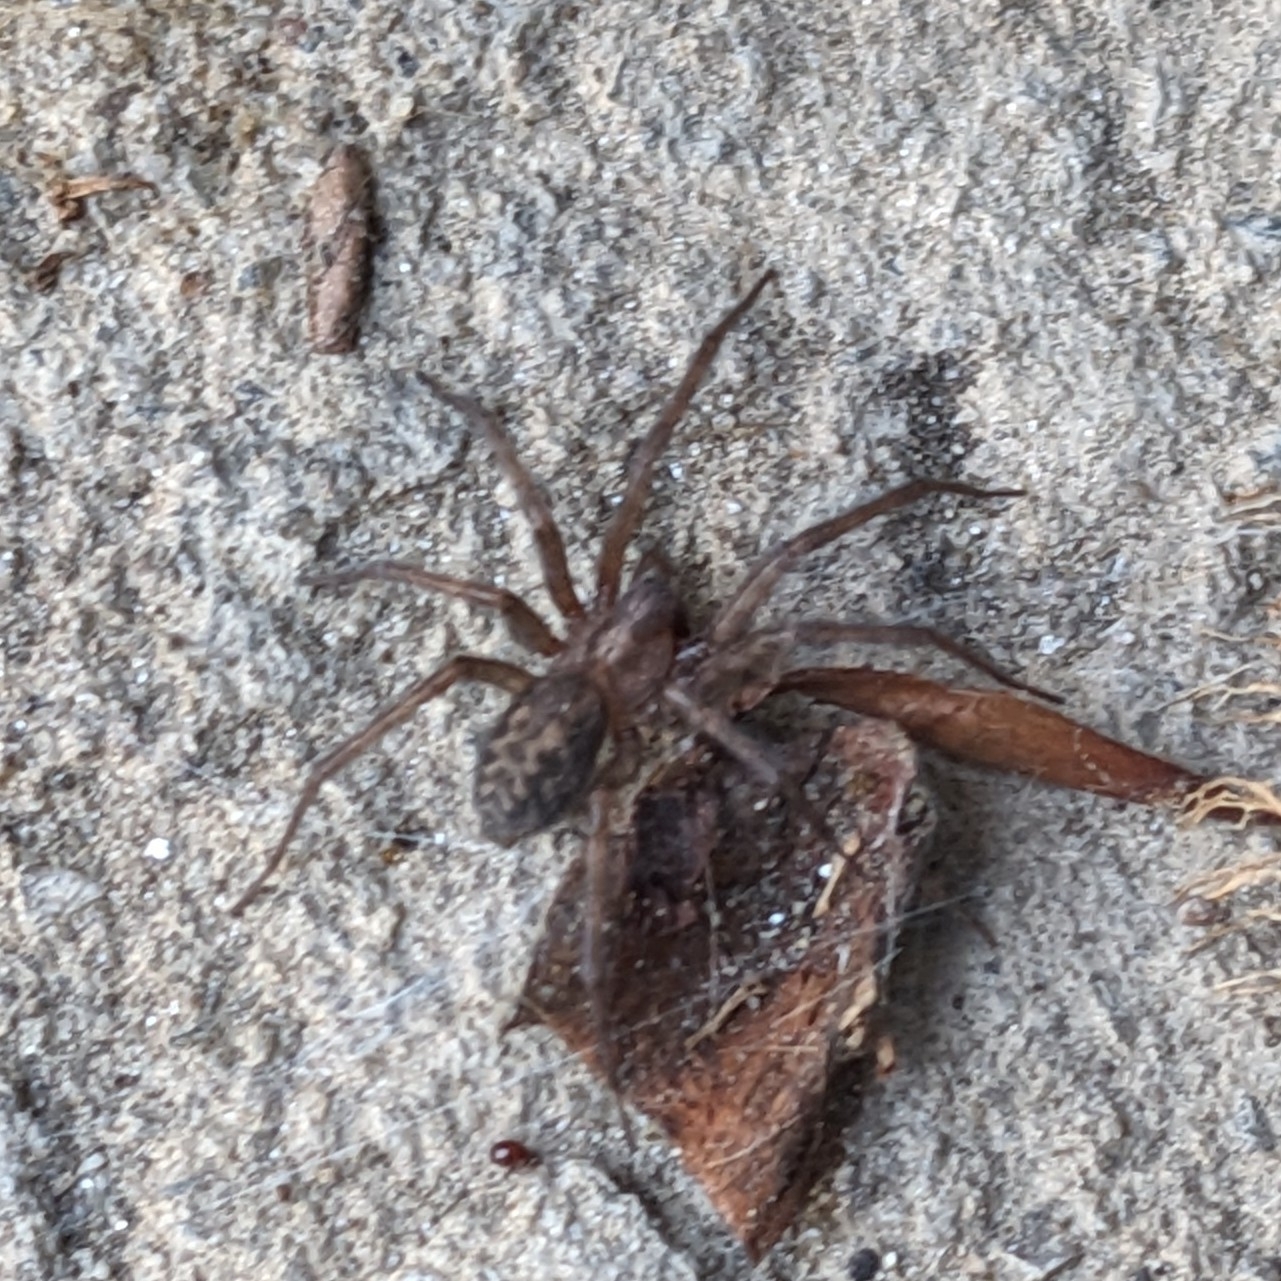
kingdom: Animalia
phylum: Arthropoda
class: Arachnida
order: Araneae
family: Agelenidae
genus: Tegenaria
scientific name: Tegenaria domestica
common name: Barn funnel weaver
